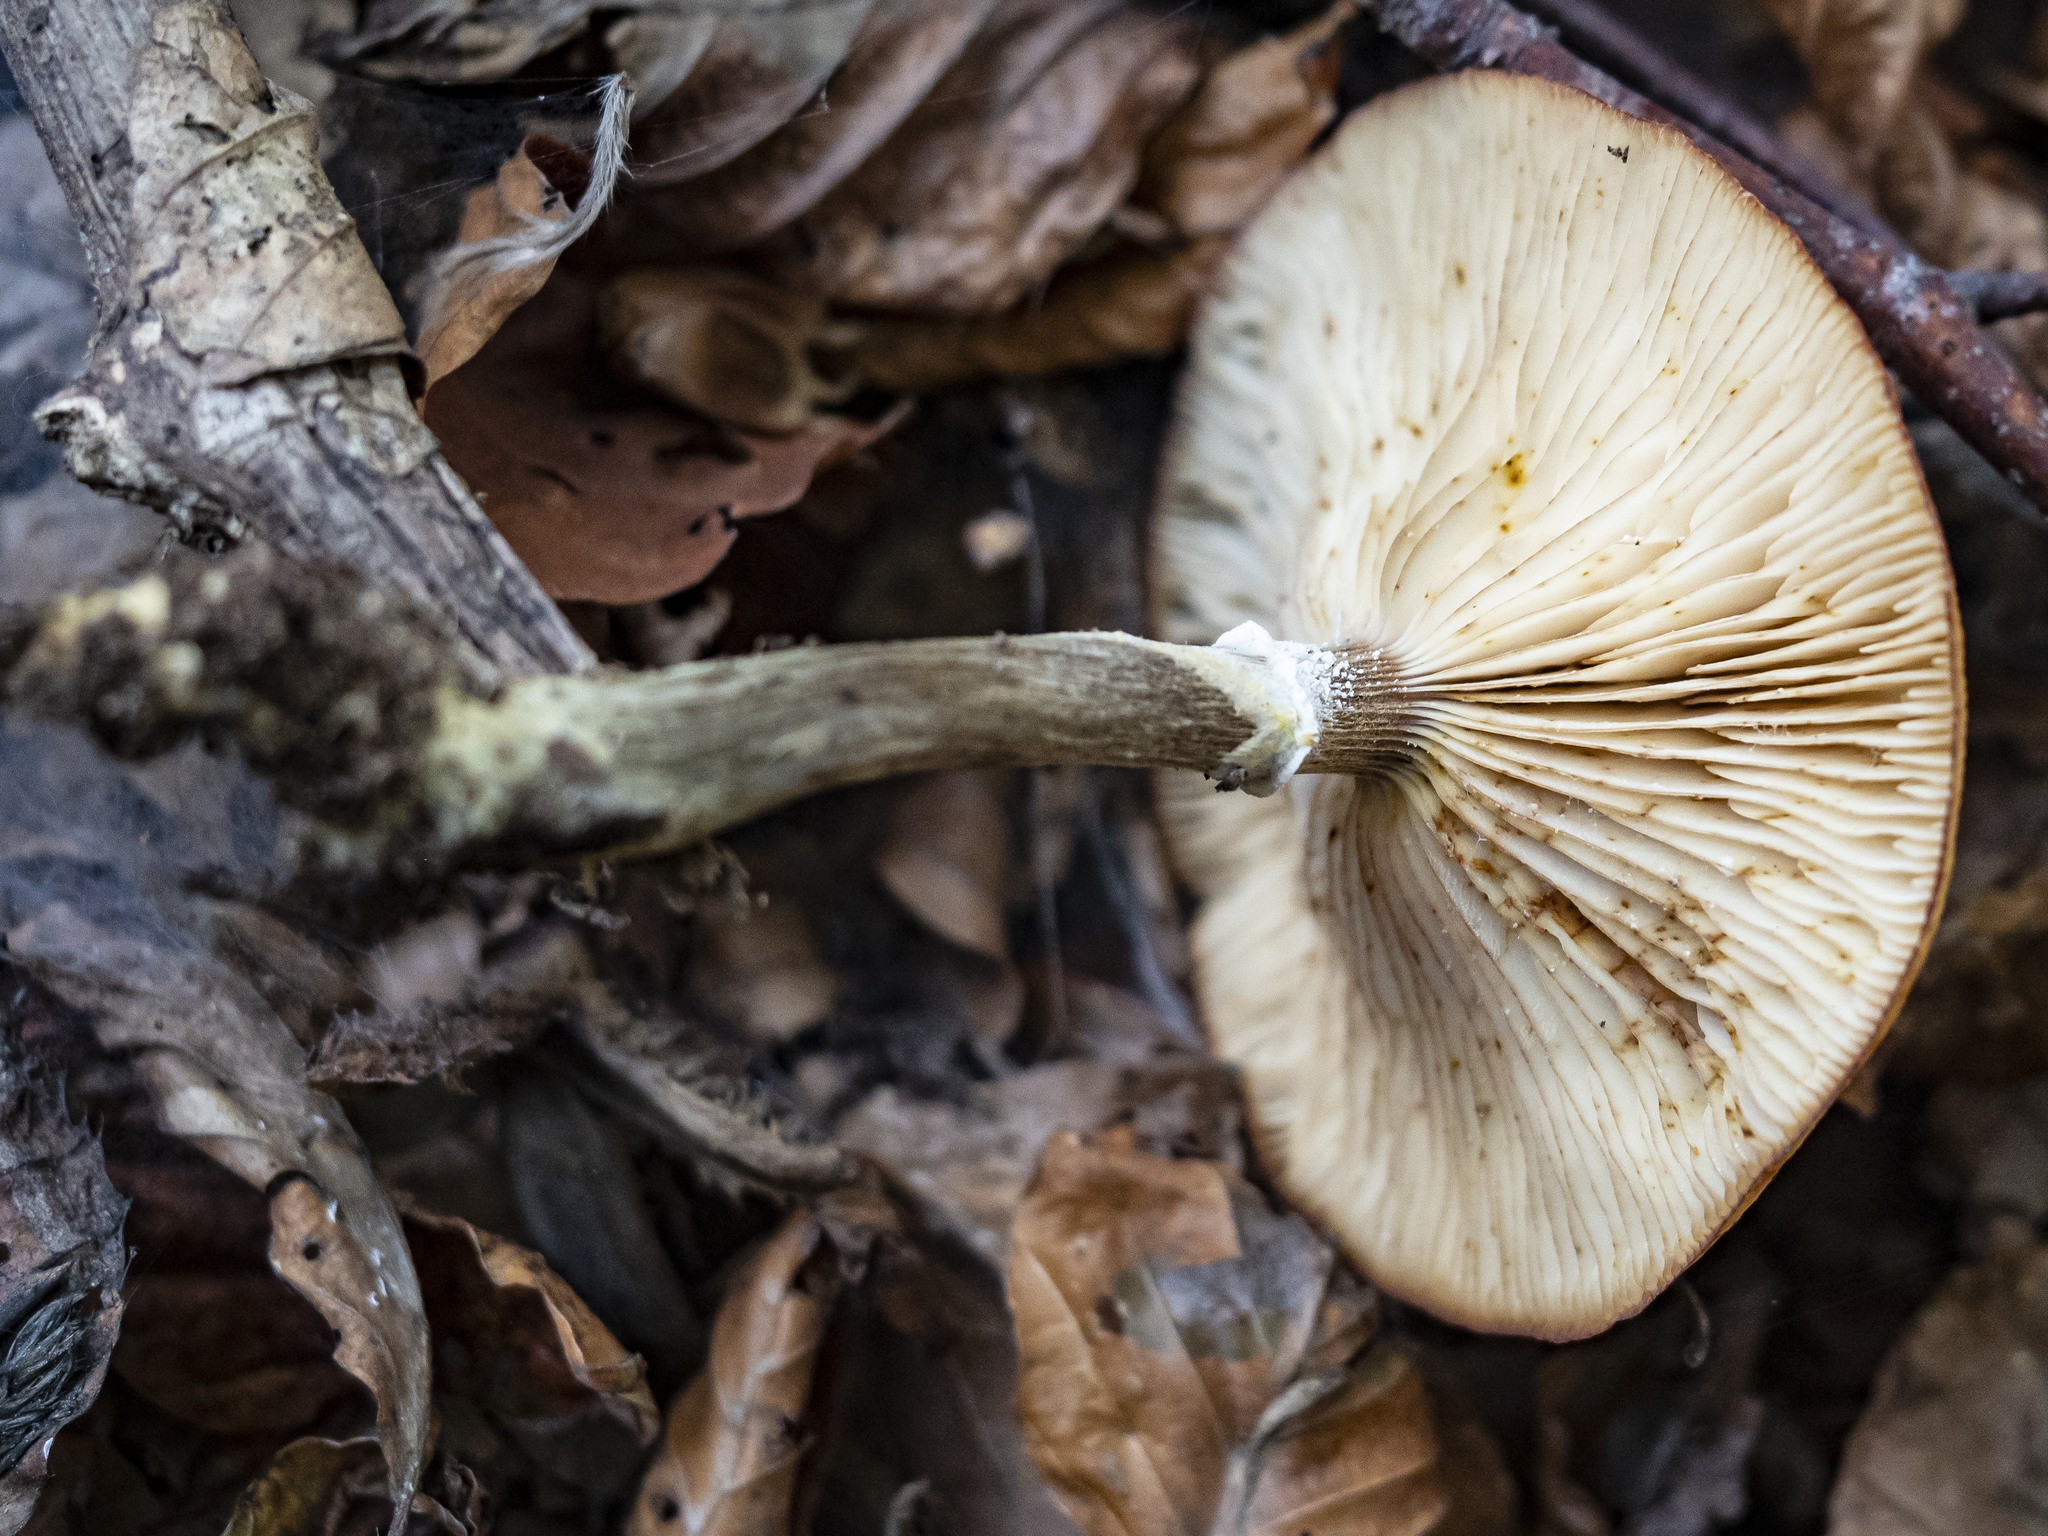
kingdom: Fungi
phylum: Basidiomycota
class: Agaricomycetes
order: Agaricales
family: Physalacriaceae
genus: Armillaria
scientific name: Armillaria gallica
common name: Bulbous honey fungus
